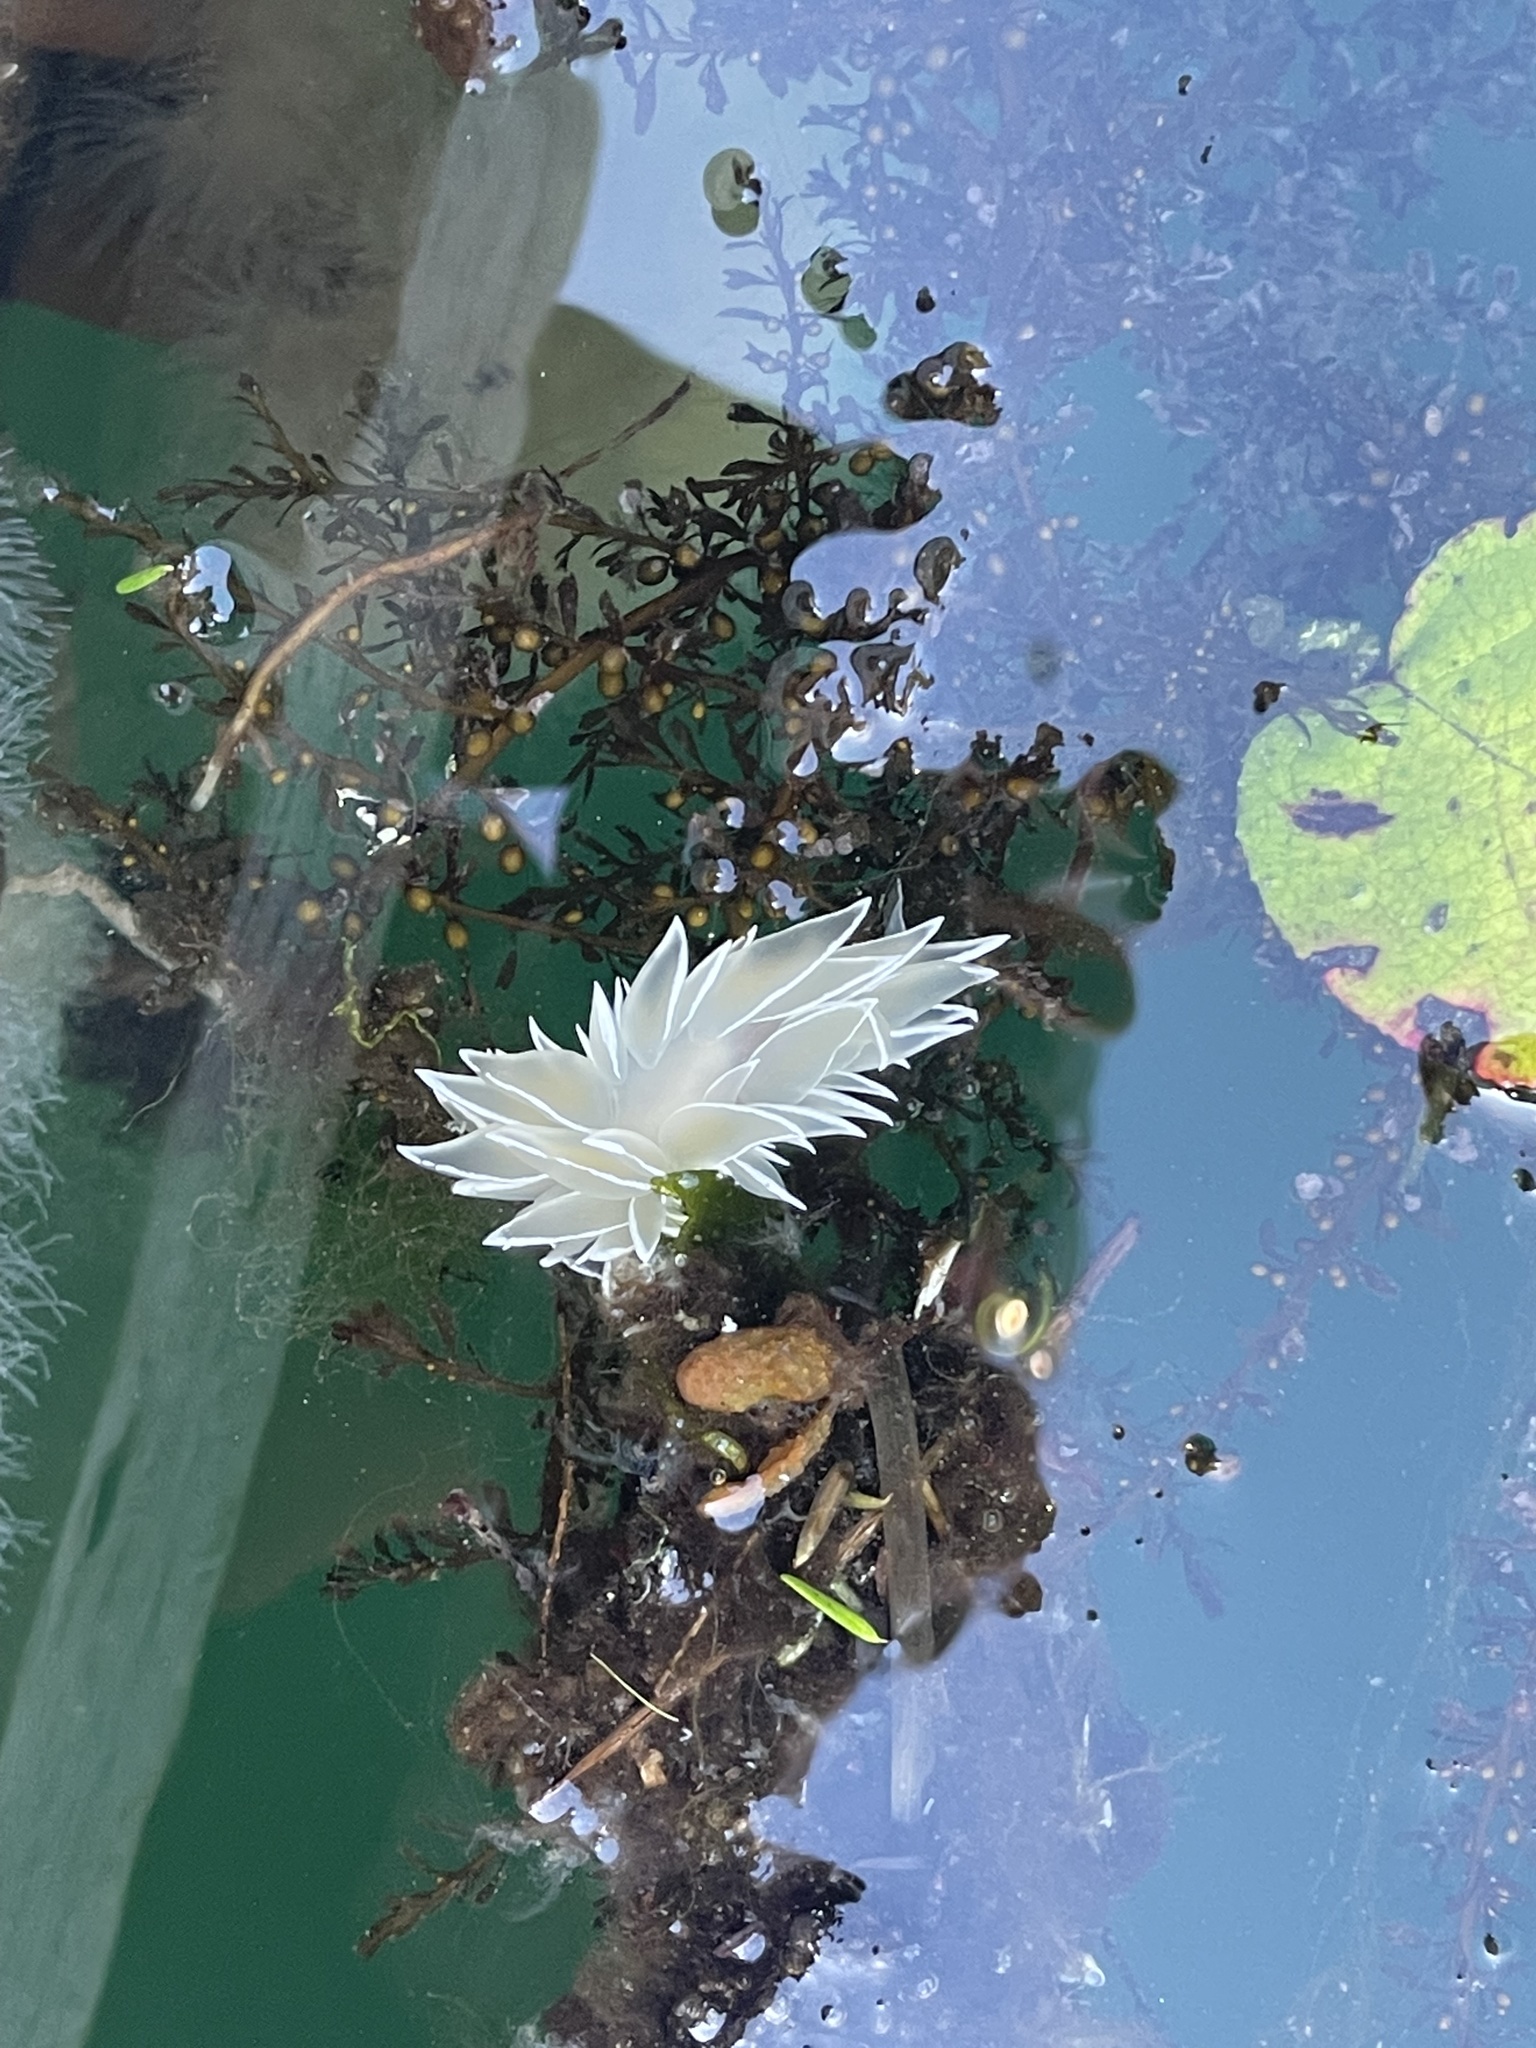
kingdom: Animalia
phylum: Mollusca
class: Gastropoda
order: Nudibranchia
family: Dironidae
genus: Dirona
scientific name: Dirona albolineata
